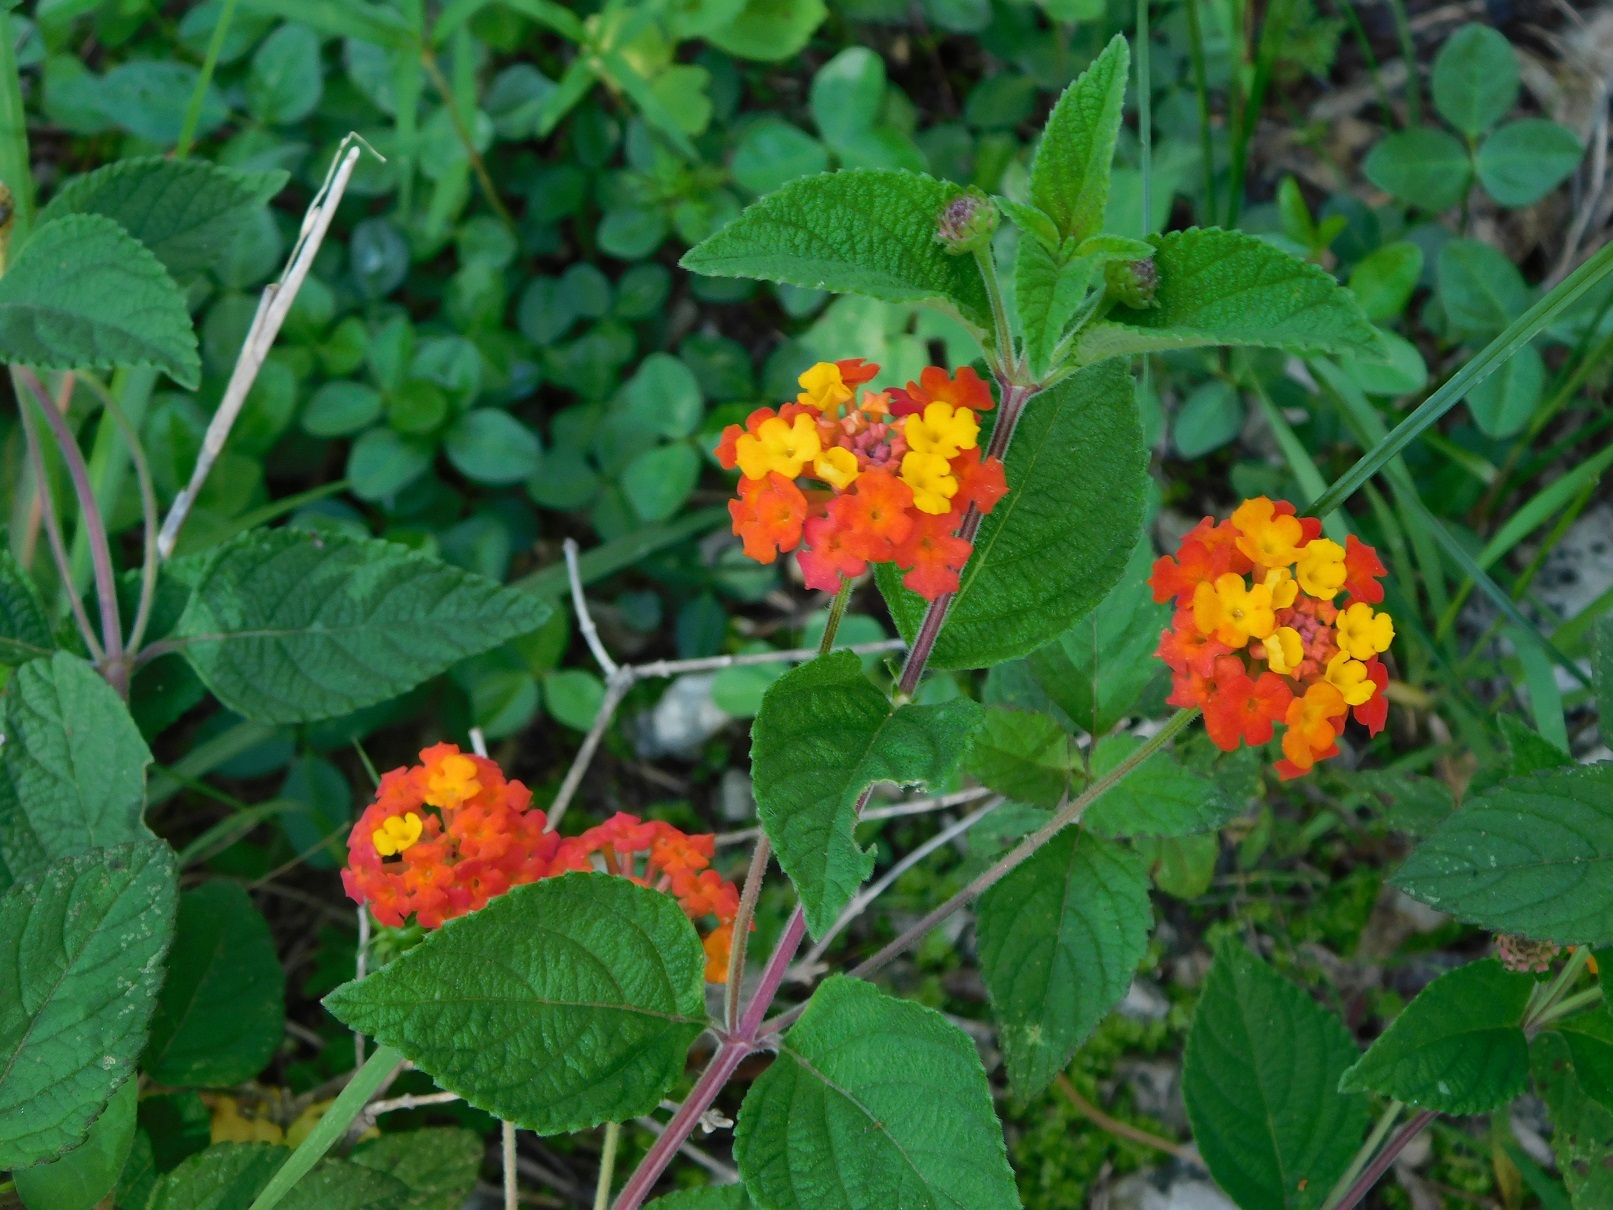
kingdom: Plantae
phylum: Tracheophyta
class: Magnoliopsida
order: Lamiales
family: Verbenaceae
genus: Lantana
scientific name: Lantana horrida
